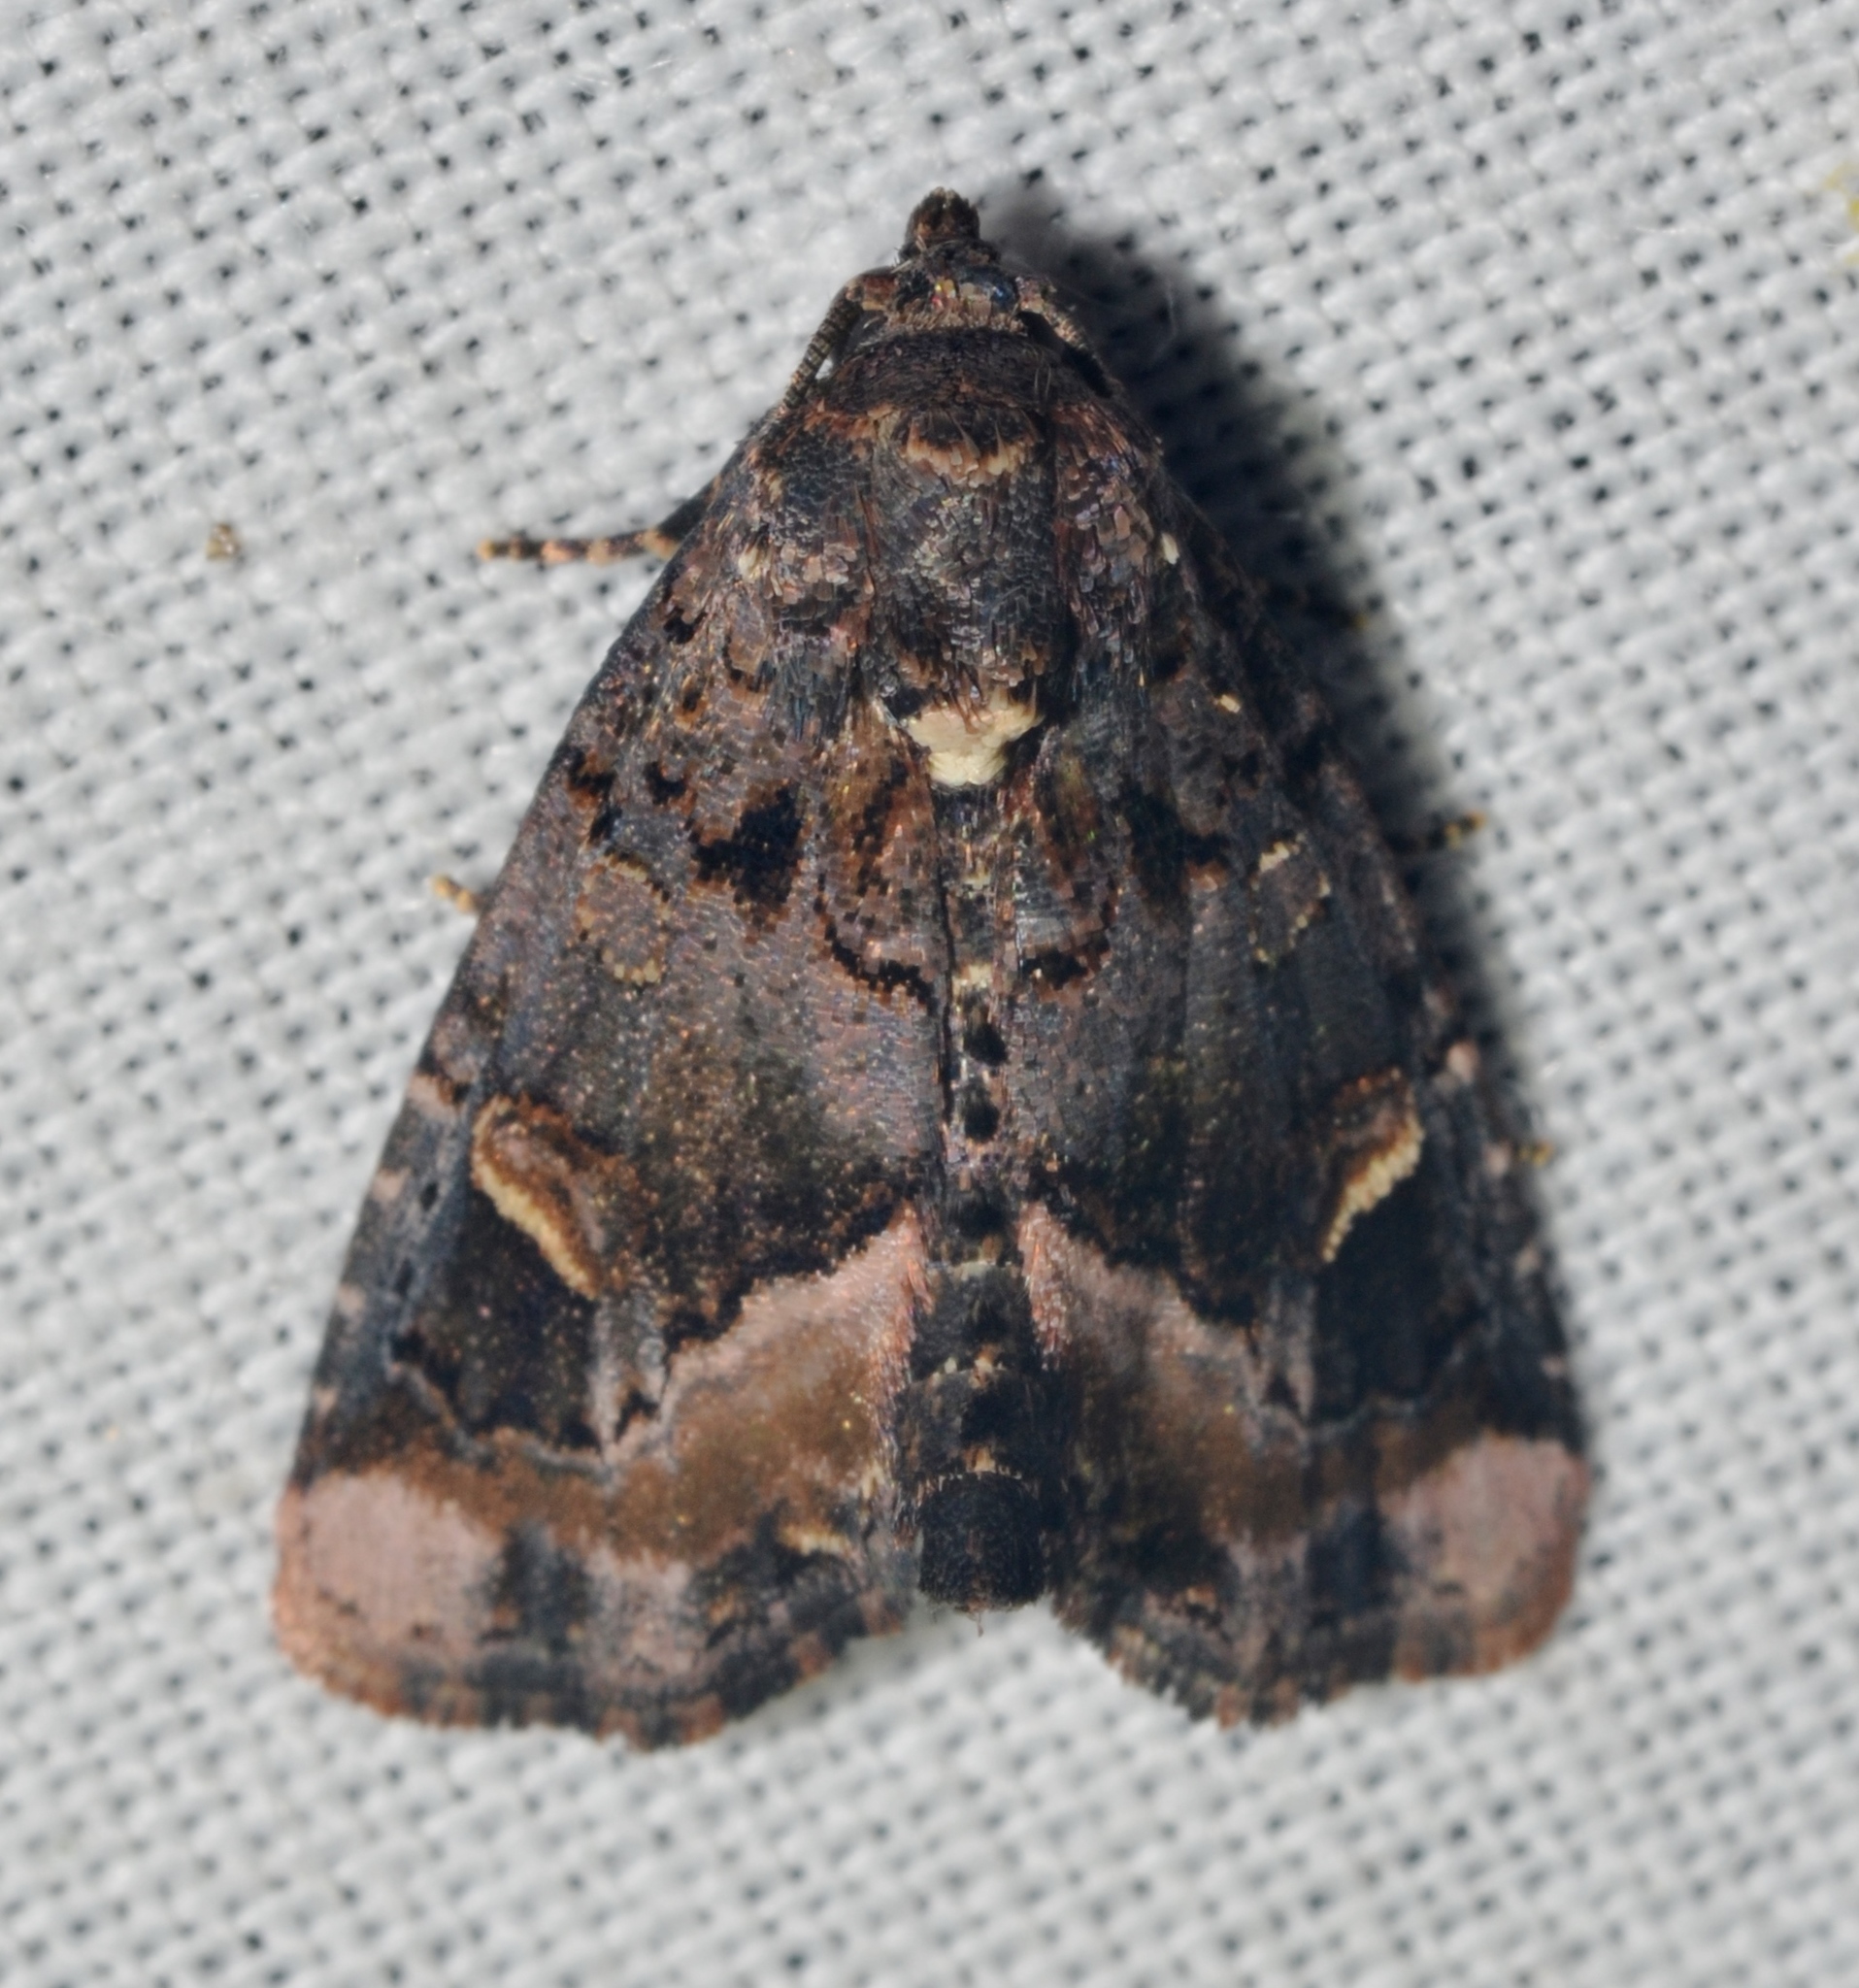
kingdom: Animalia
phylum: Arthropoda
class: Insecta
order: Lepidoptera
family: Noctuidae
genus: Homophoberia
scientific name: Homophoberia apicosa
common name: Black wedge-spot
